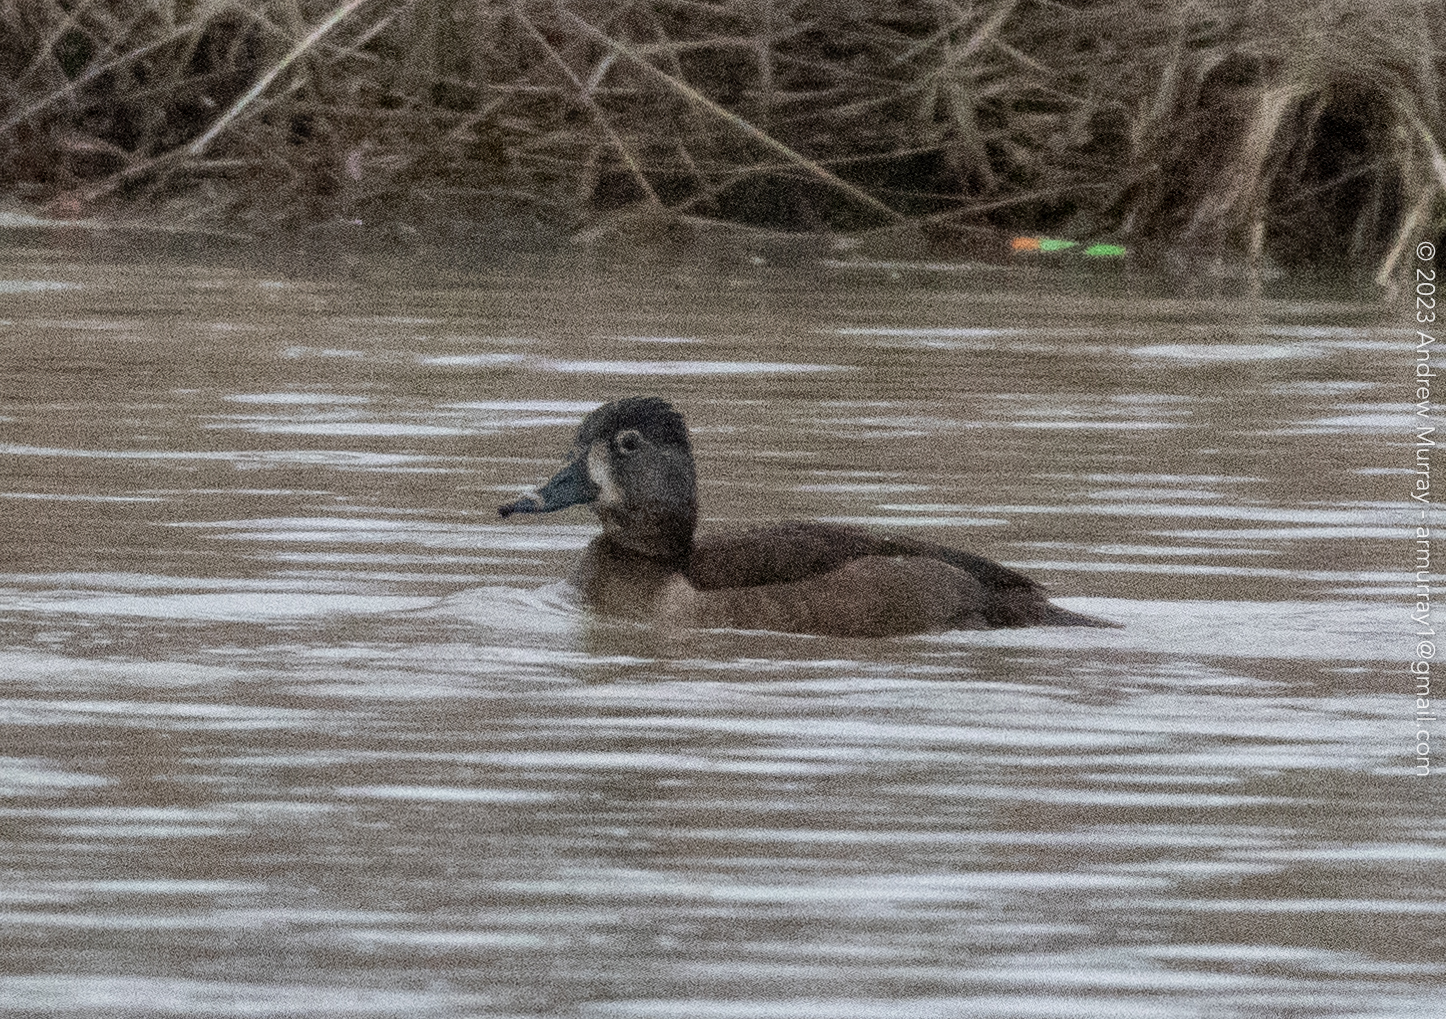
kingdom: Animalia
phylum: Chordata
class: Aves
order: Anseriformes
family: Anatidae
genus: Aythya
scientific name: Aythya collaris
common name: Ring-necked duck
